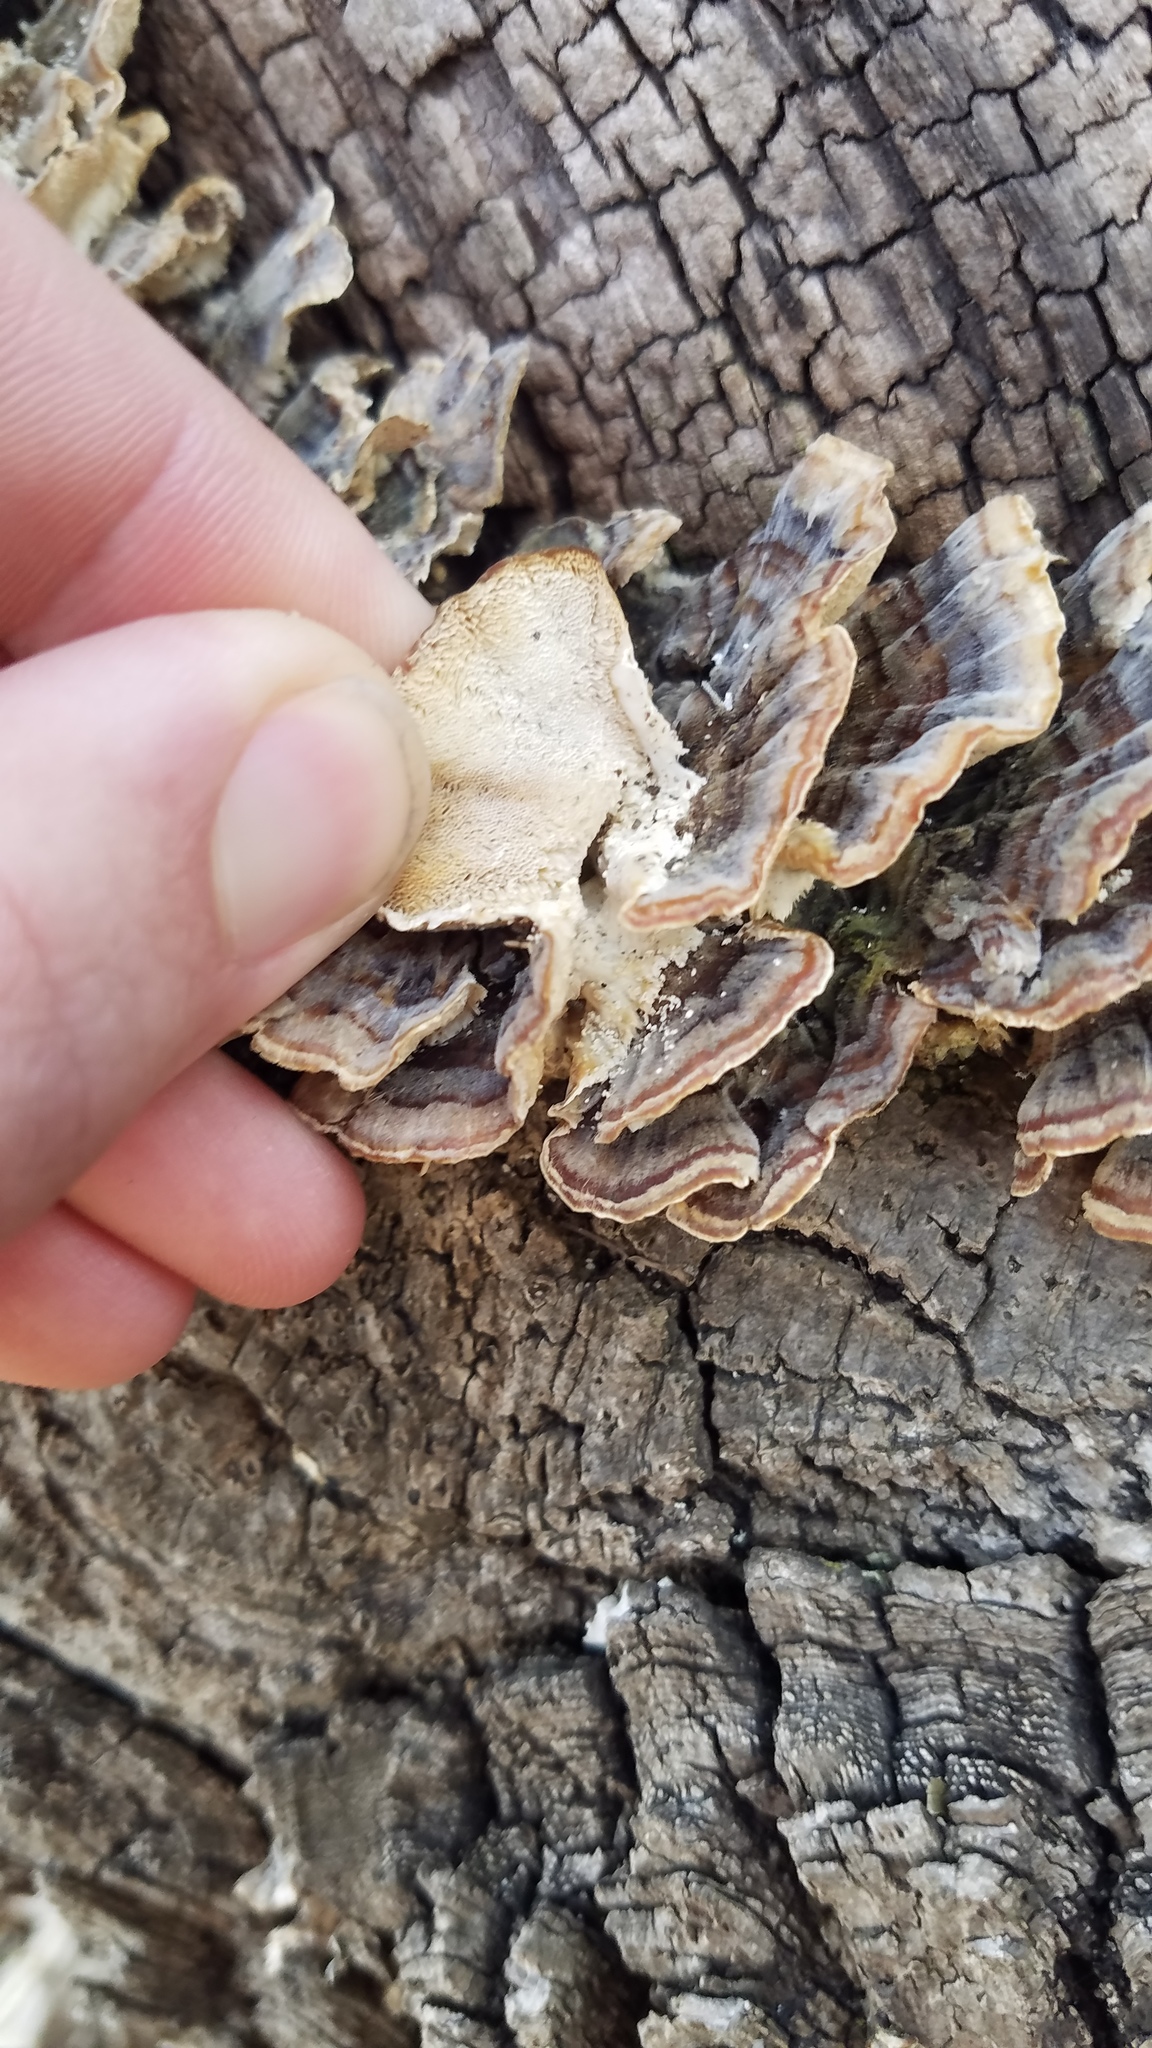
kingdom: Fungi
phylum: Basidiomycota
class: Agaricomycetes
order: Polyporales
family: Polyporaceae
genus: Trametes
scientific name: Trametes versicolor
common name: Turkeytail
